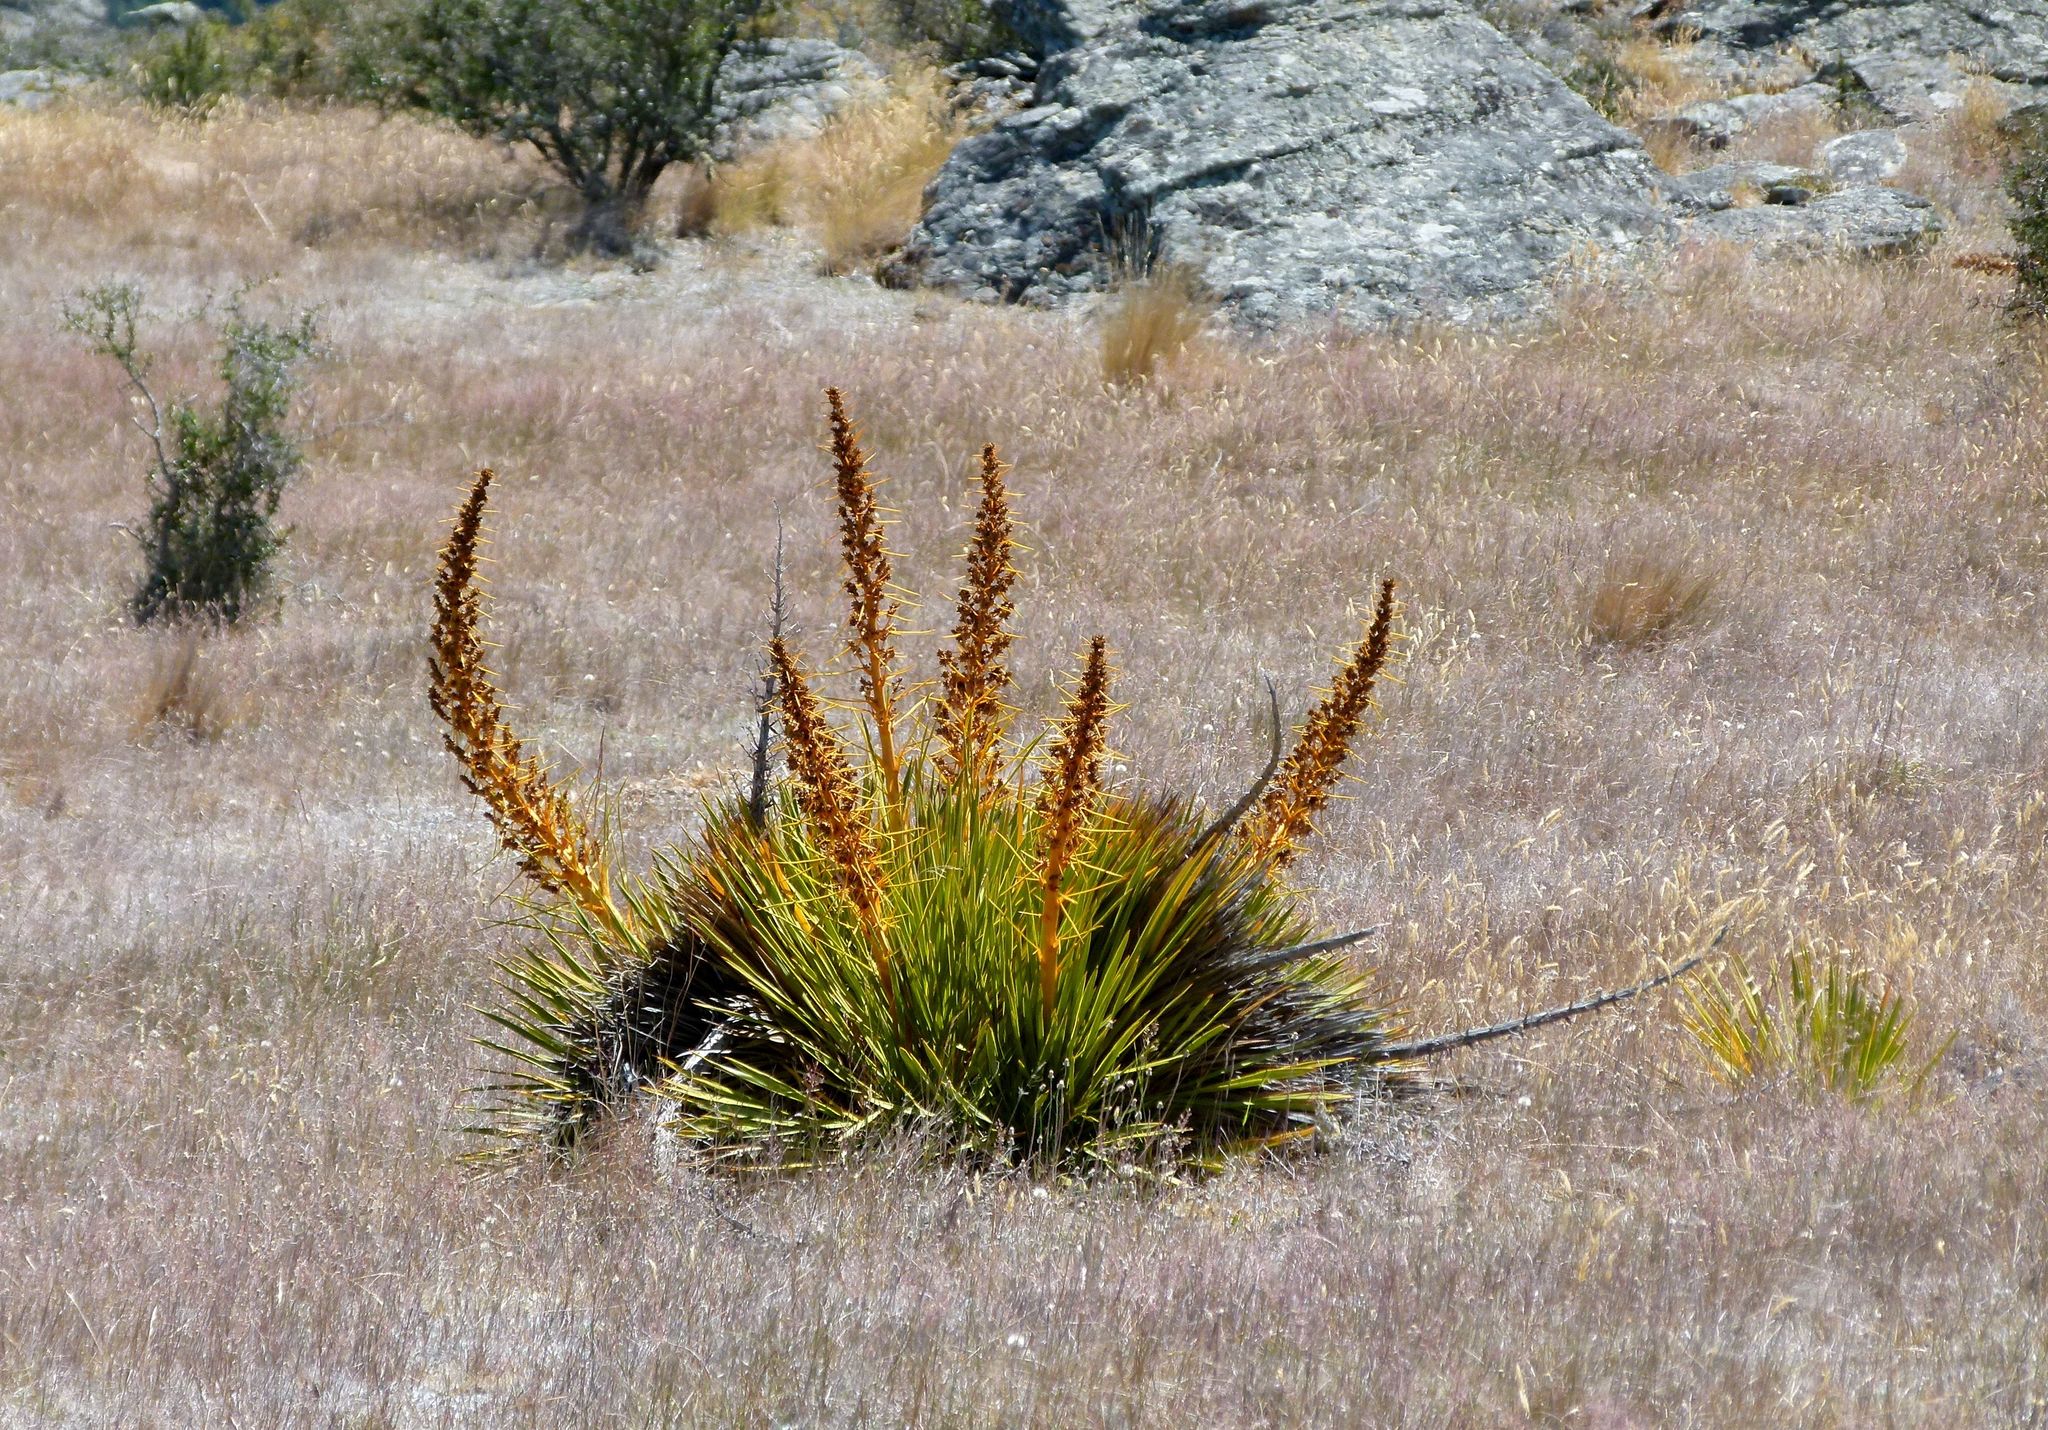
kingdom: Plantae
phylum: Tracheophyta
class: Magnoliopsida
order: Apiales
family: Apiaceae
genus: Aciphylla
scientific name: Aciphylla aurea
